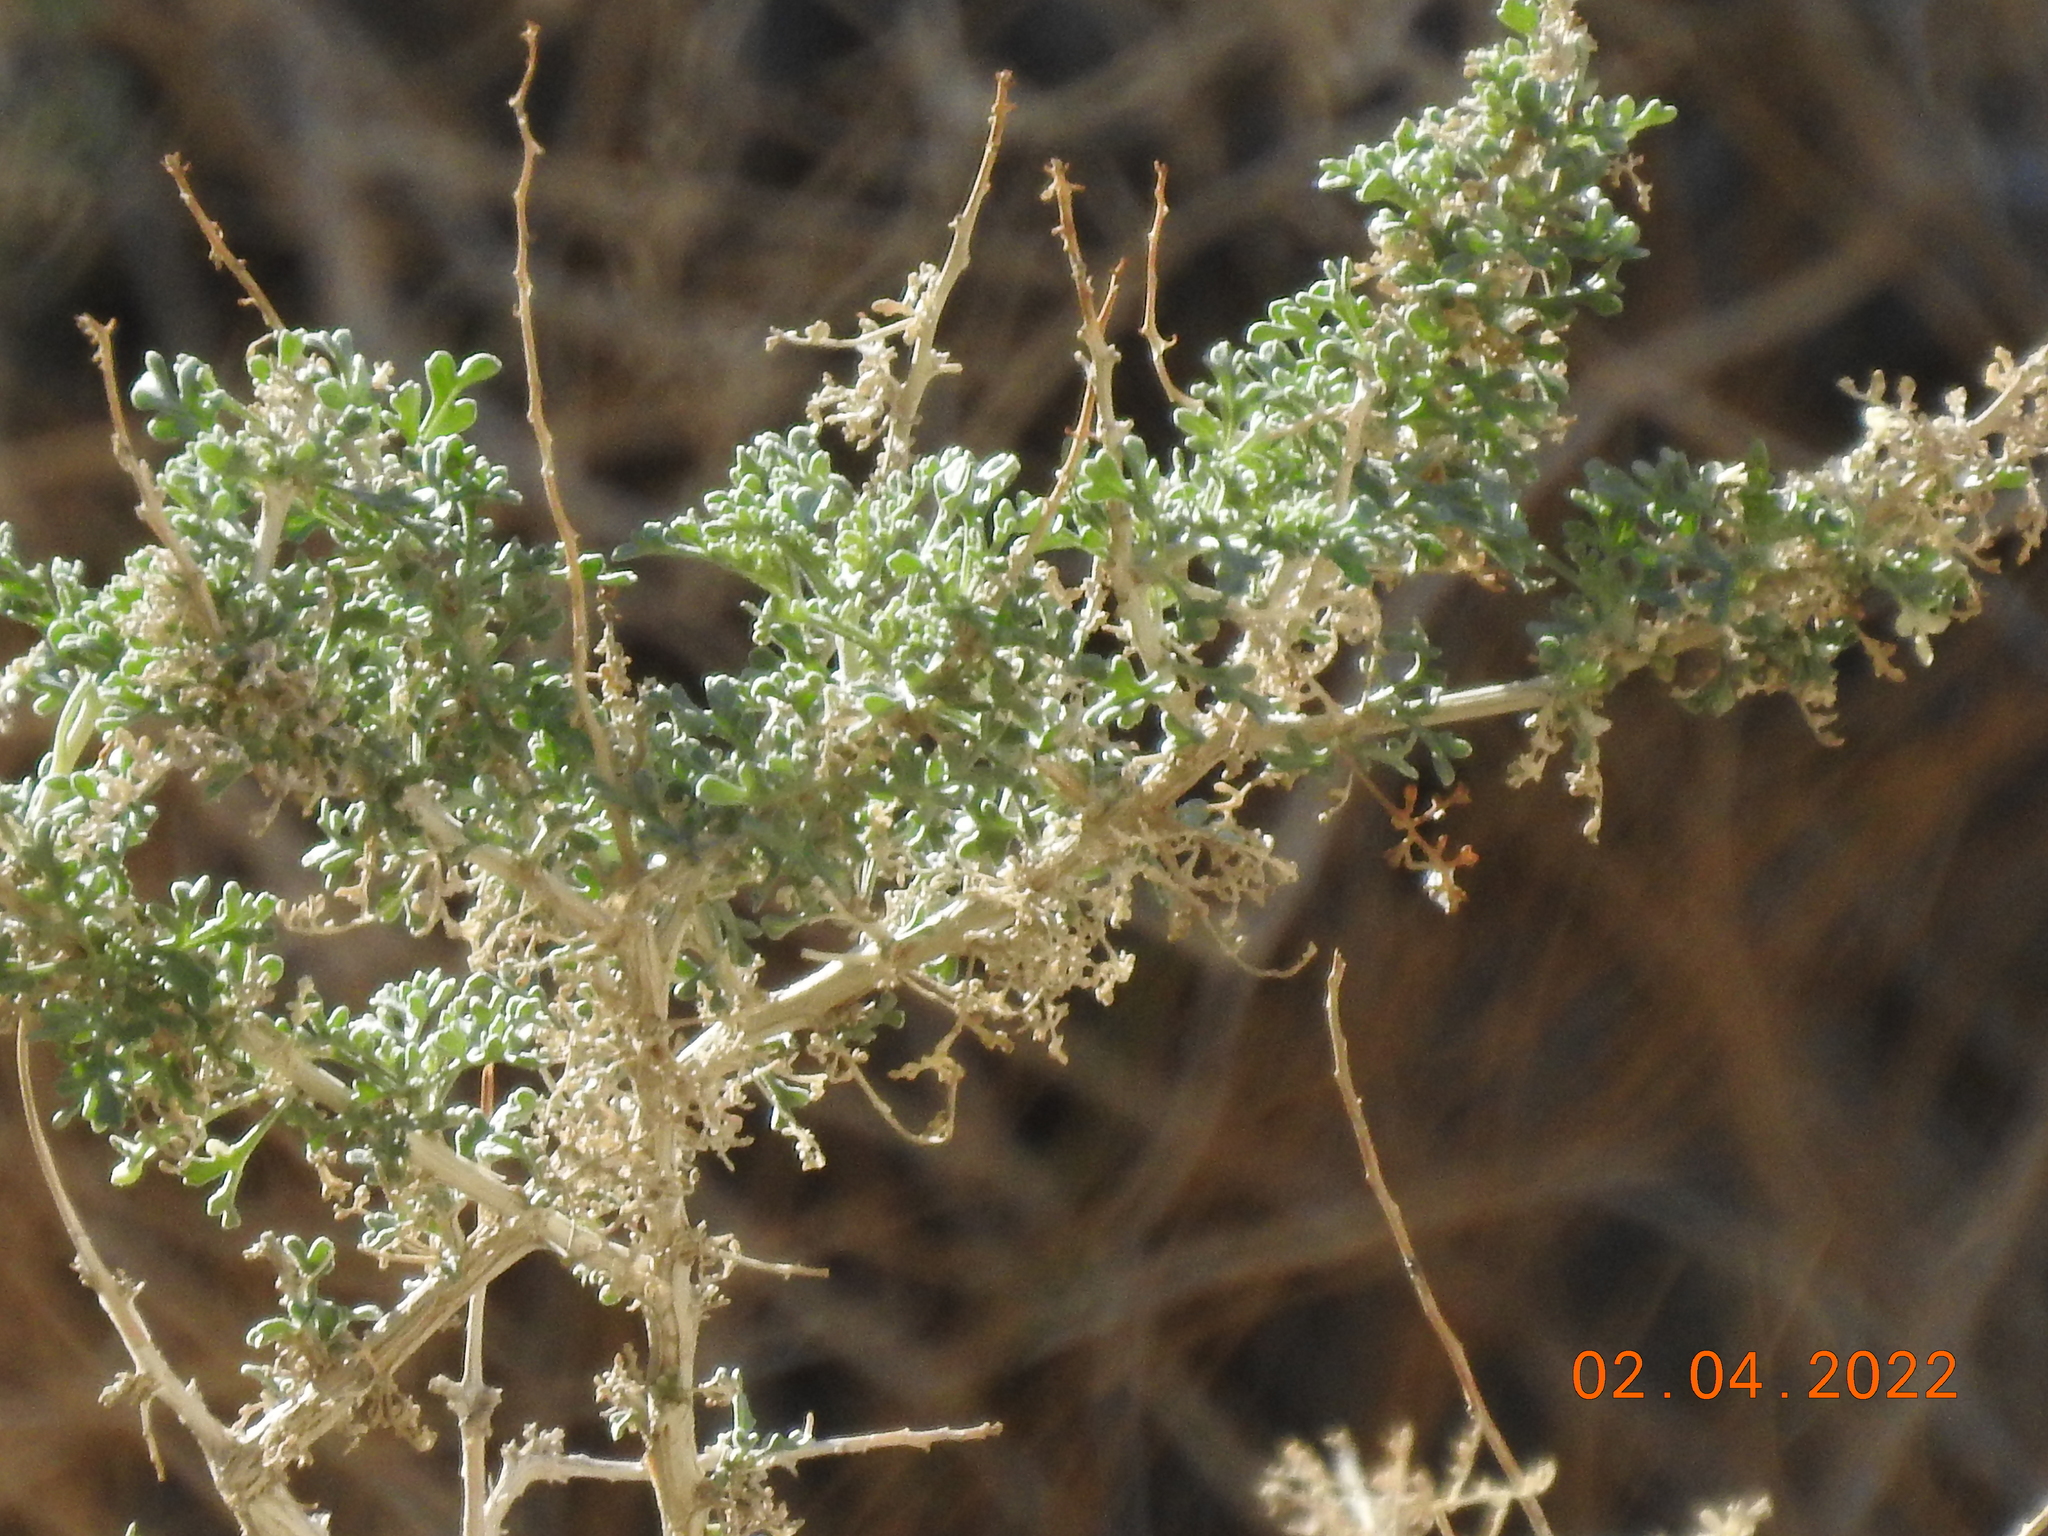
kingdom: Plantae
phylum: Tracheophyta
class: Magnoliopsida
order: Asterales
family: Asteraceae
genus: Ambrosia
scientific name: Ambrosia dumosa
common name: Bur-sage
